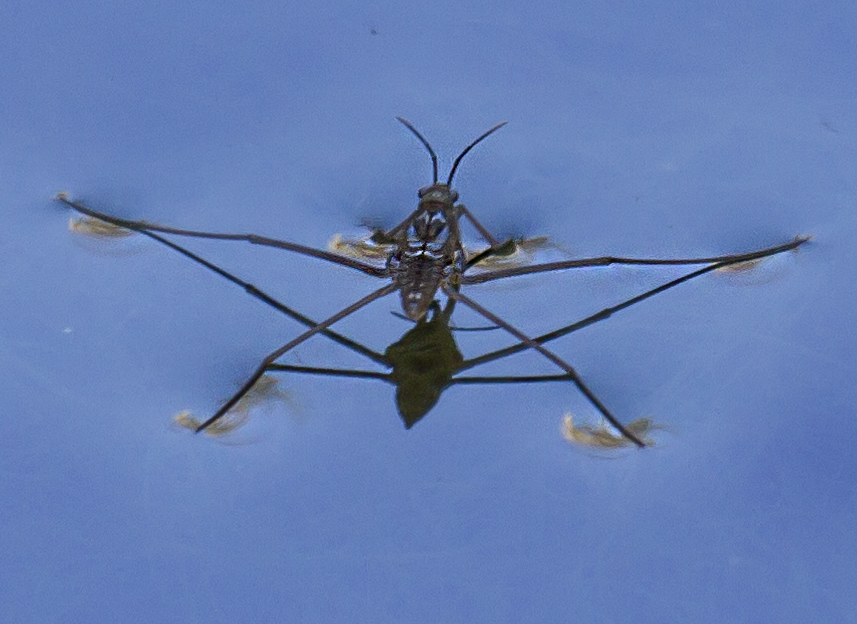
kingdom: Animalia
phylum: Arthropoda
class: Insecta
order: Hemiptera
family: Gerridae
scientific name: Gerridae
